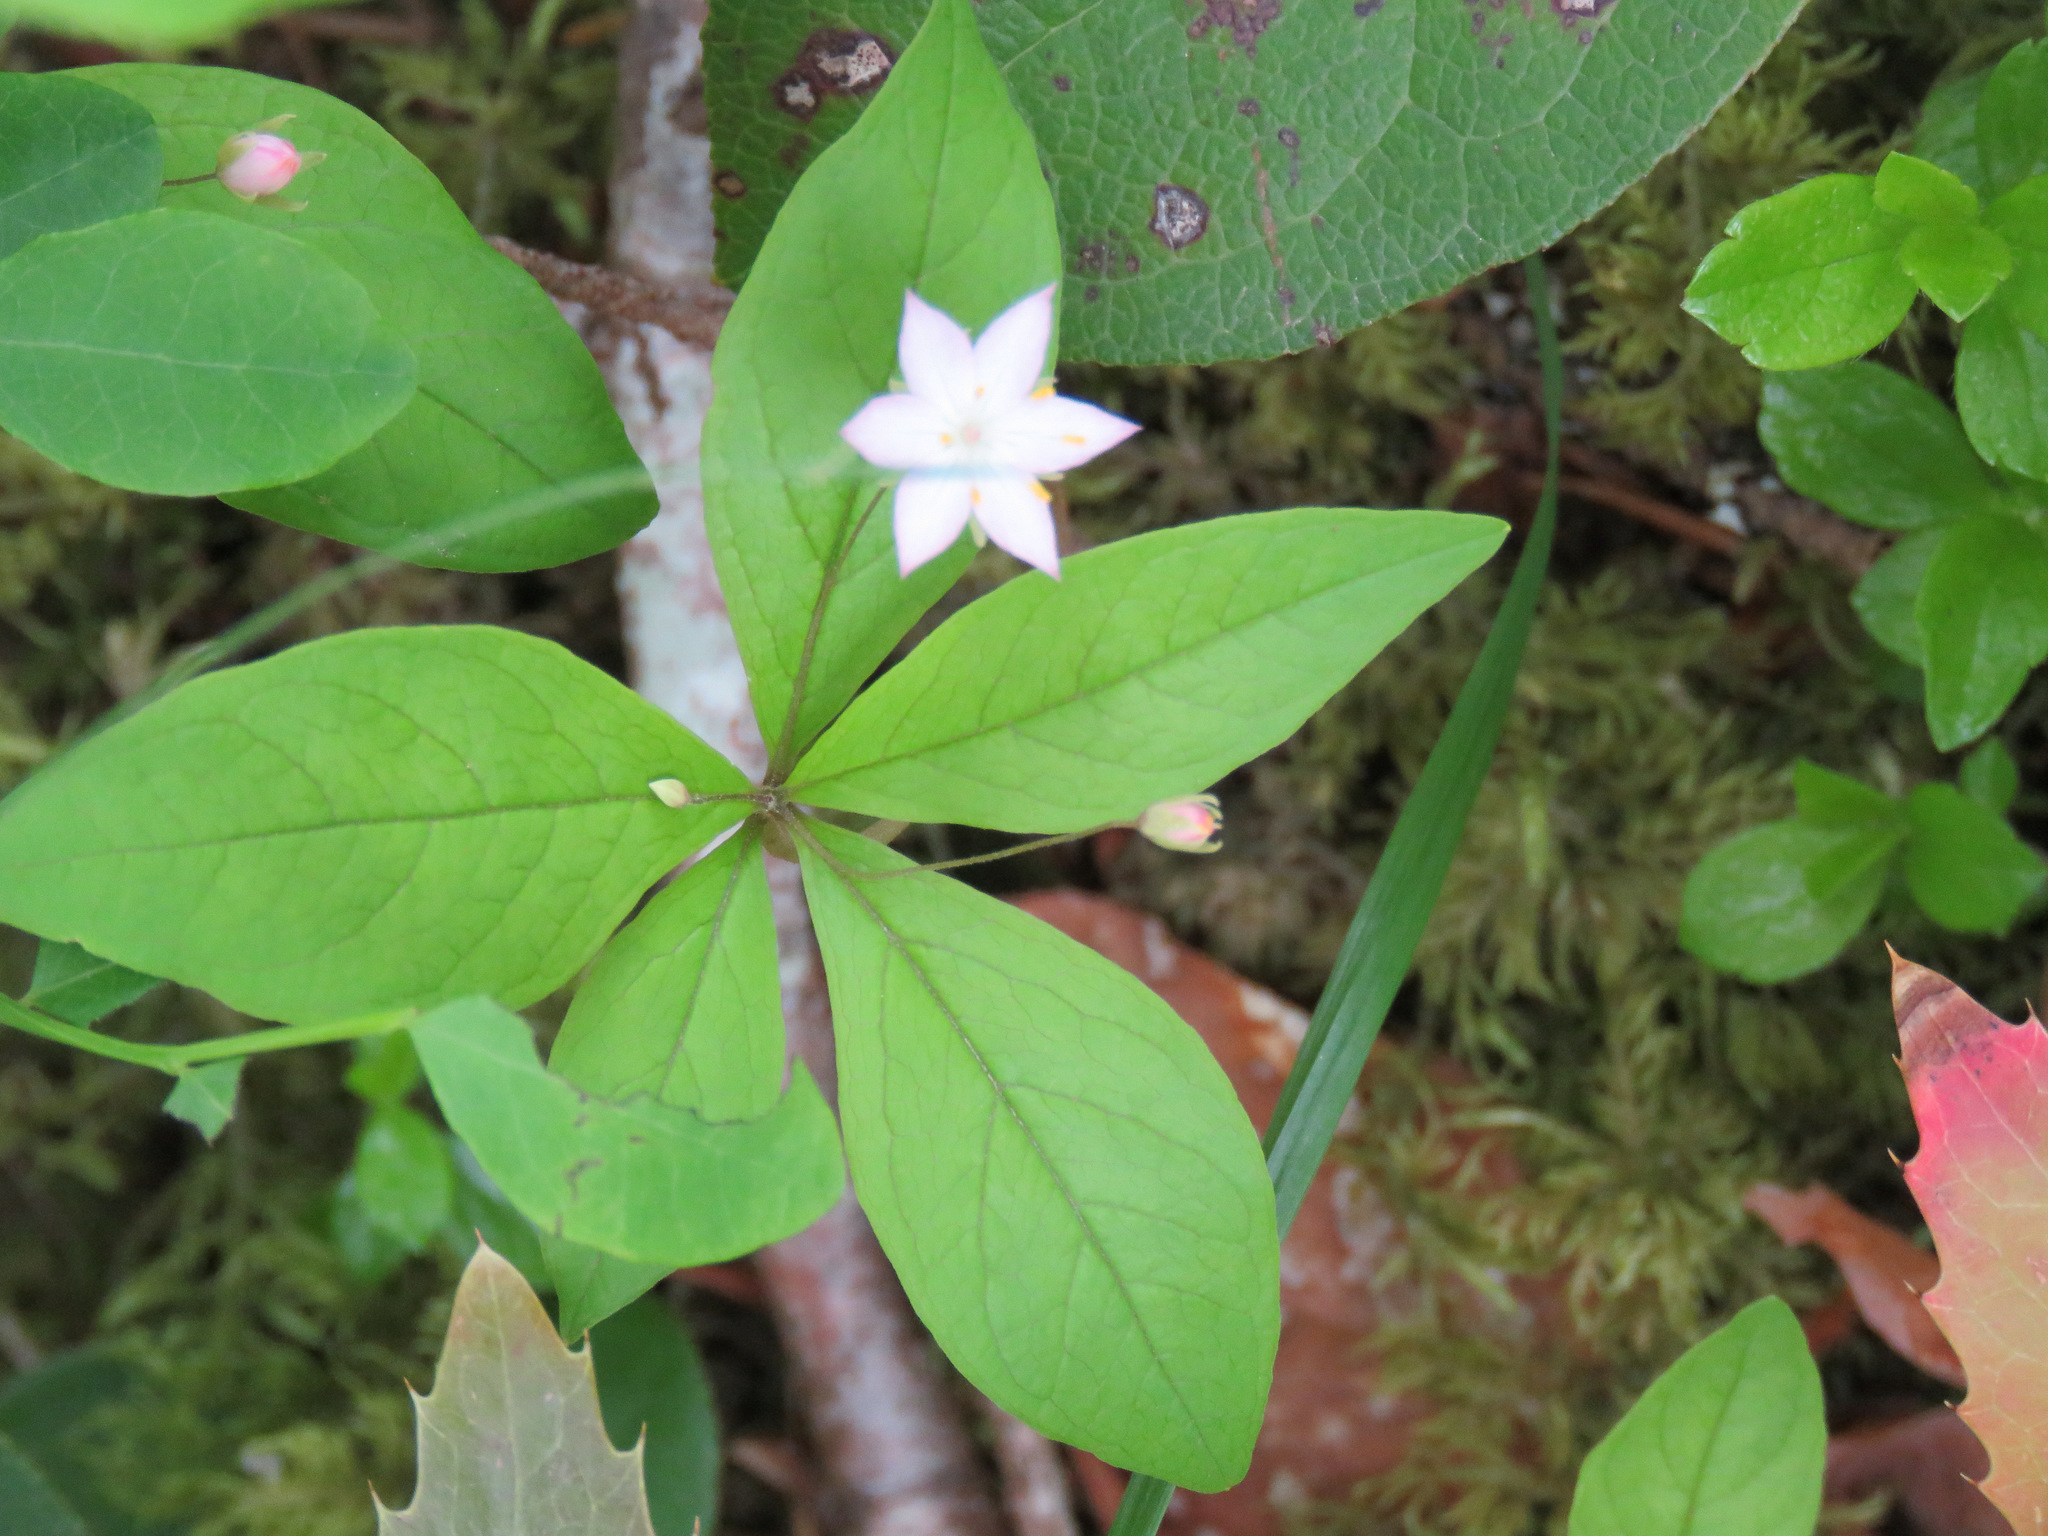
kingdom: Plantae
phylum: Tracheophyta
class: Magnoliopsida
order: Ericales
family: Primulaceae
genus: Lysimachia
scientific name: Lysimachia latifolia
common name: Pacific starflower
